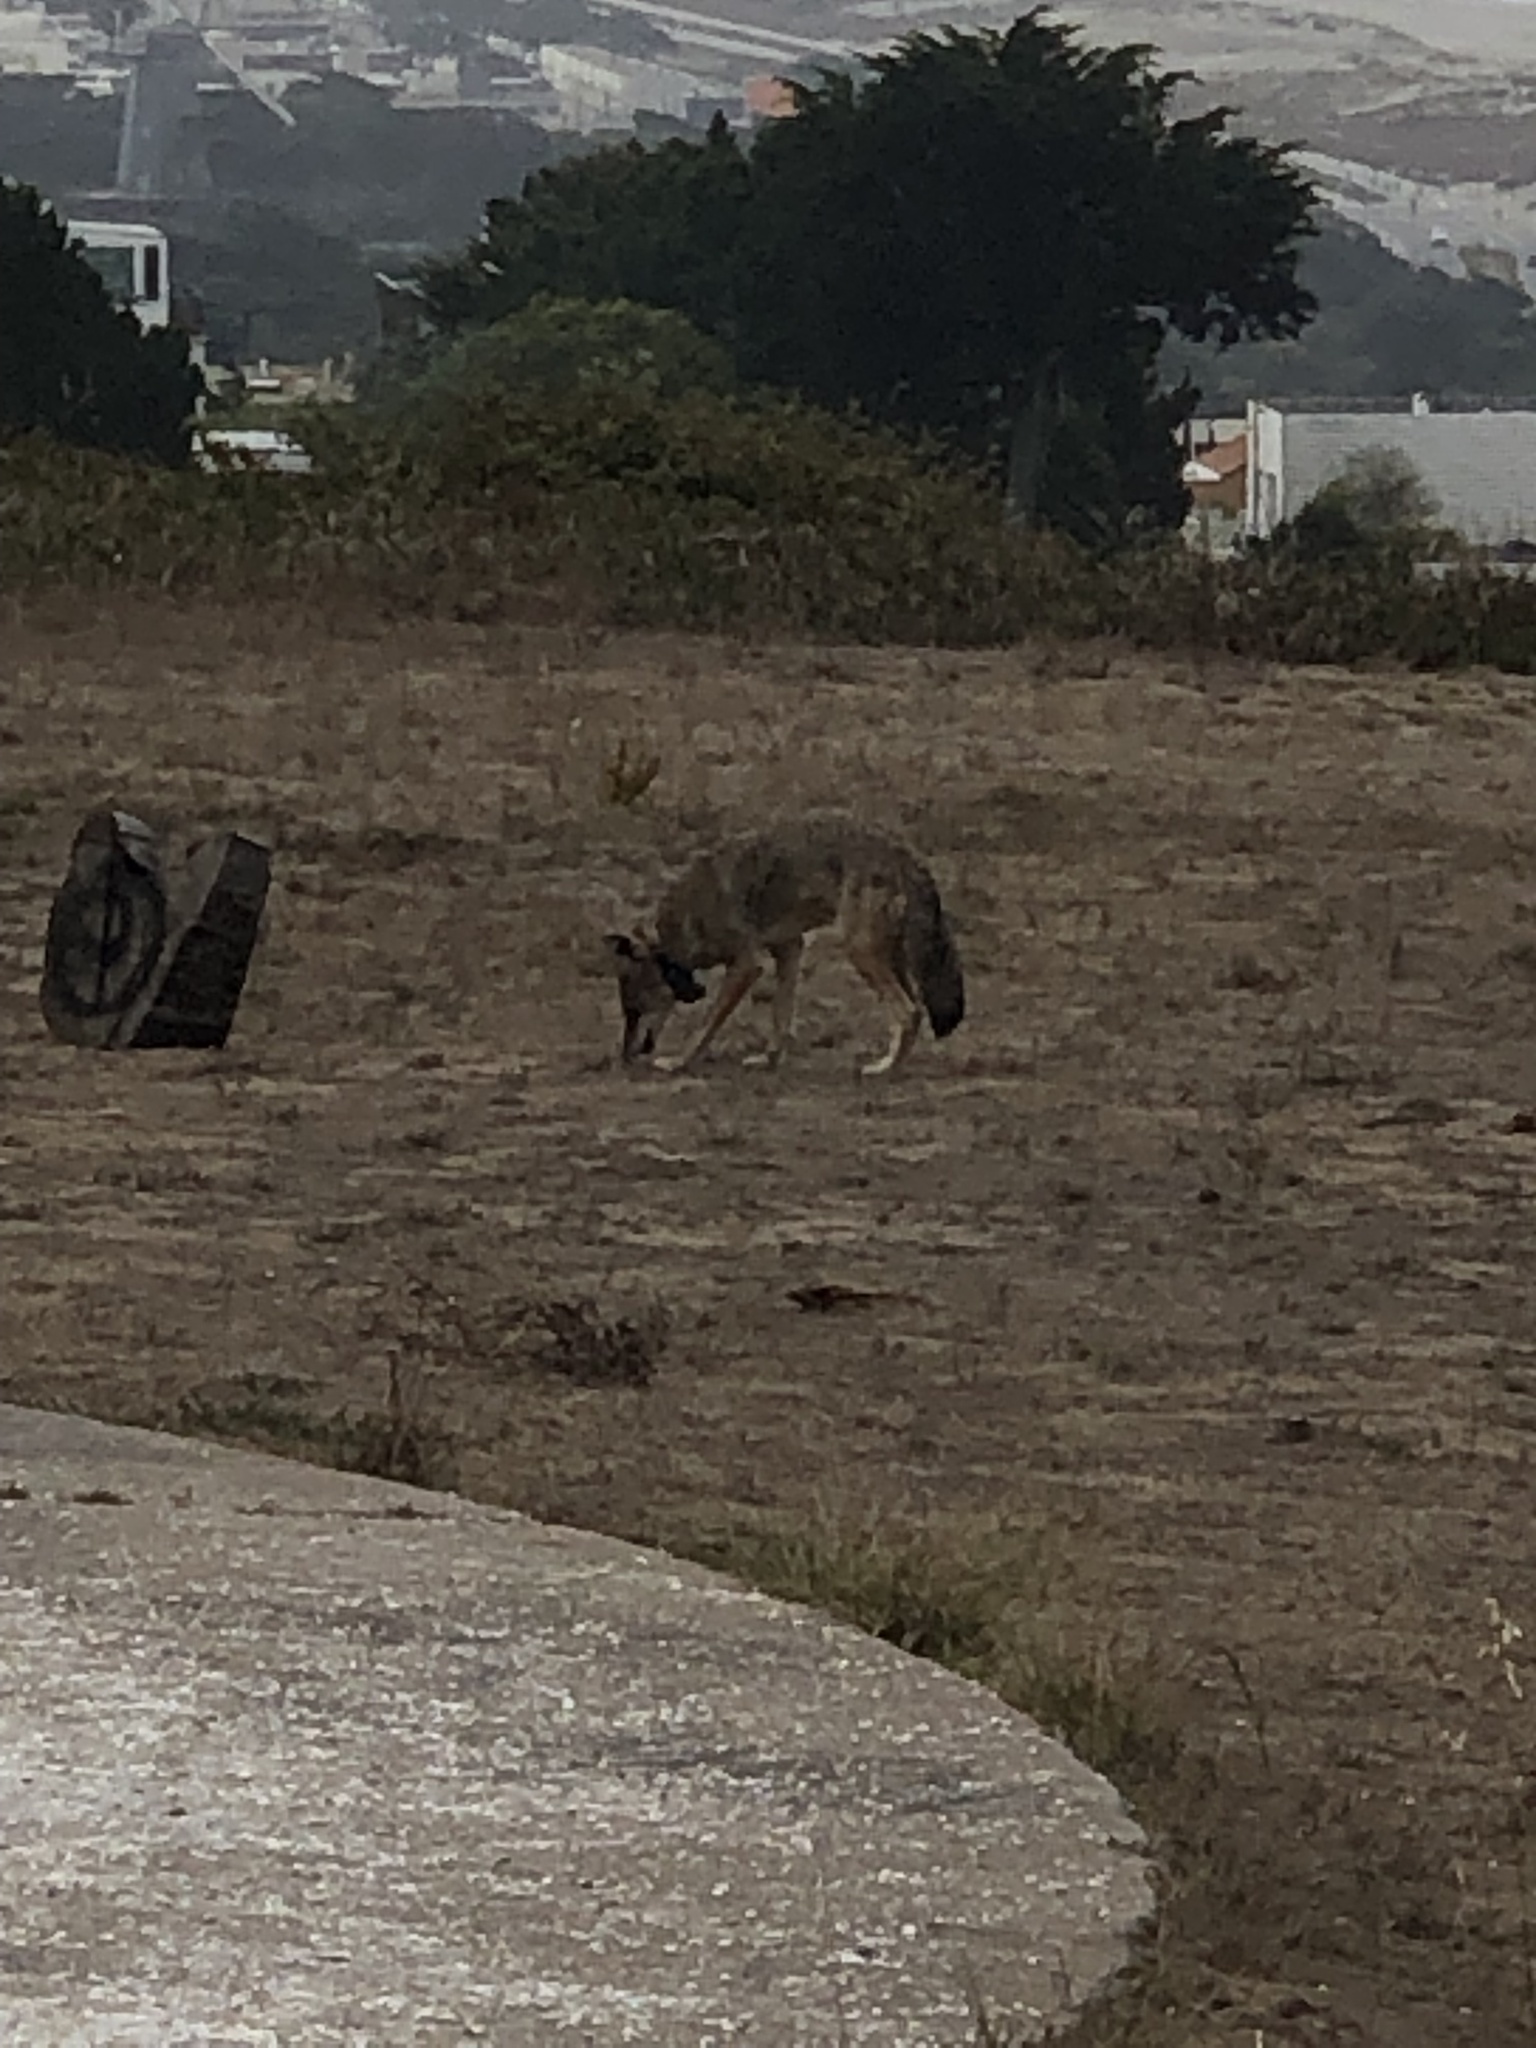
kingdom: Animalia
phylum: Chordata
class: Mammalia
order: Carnivora
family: Canidae
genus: Canis
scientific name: Canis latrans
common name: Coyote
